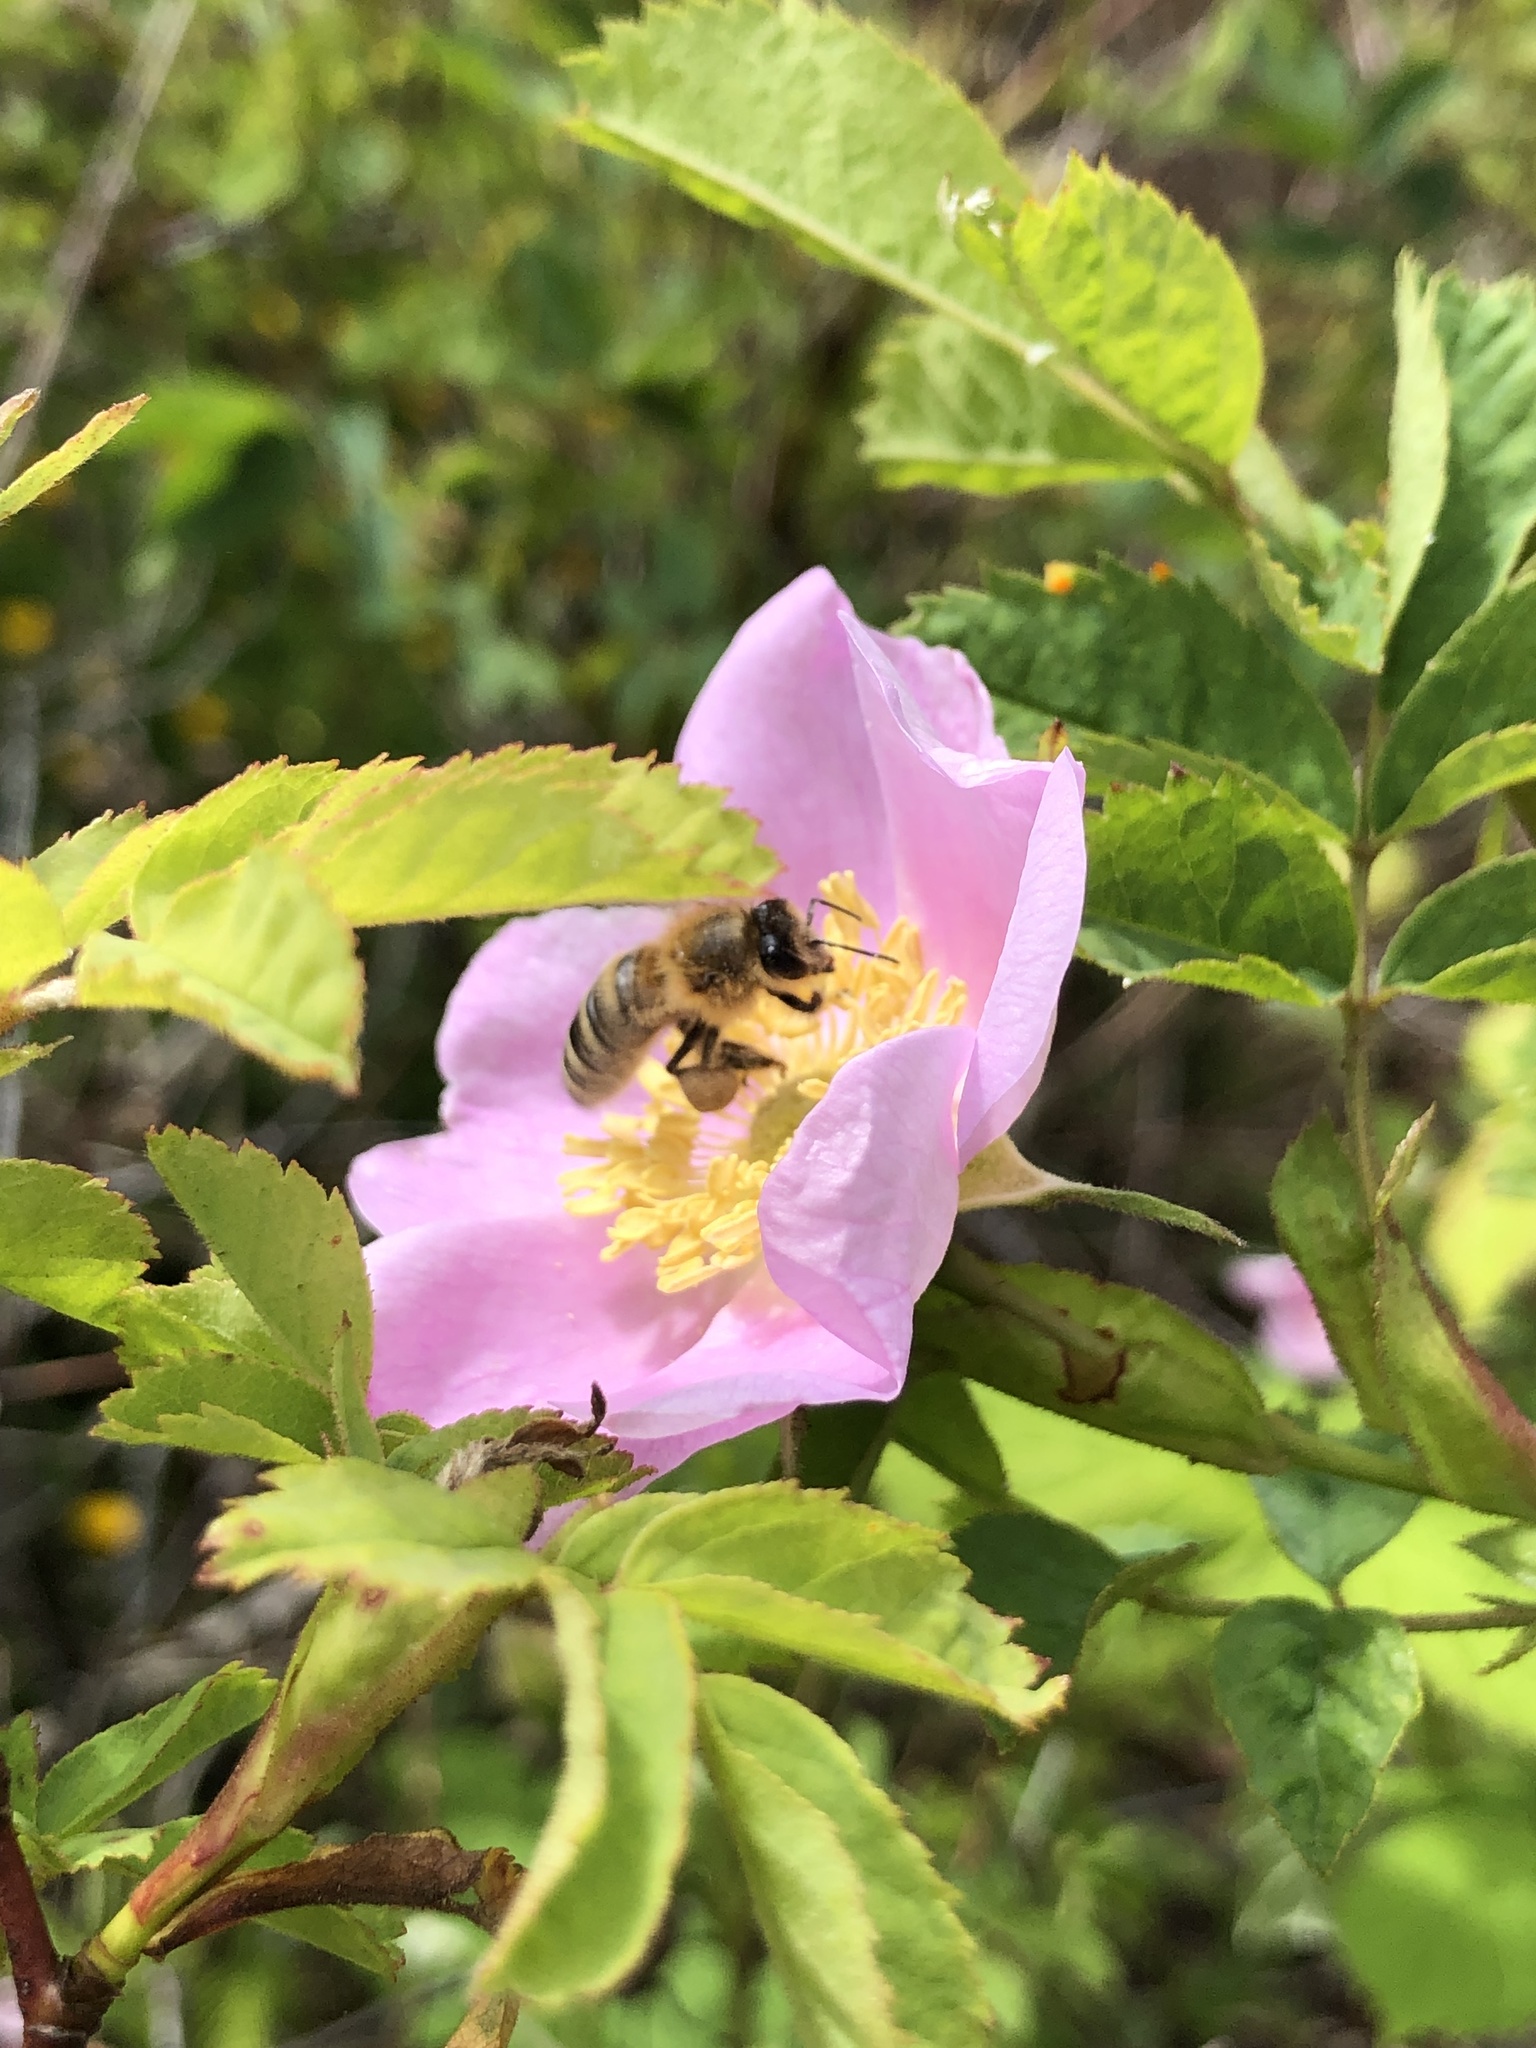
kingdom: Animalia
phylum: Arthropoda
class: Insecta
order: Hymenoptera
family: Apidae
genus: Apis
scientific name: Apis mellifera
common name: Honey bee
